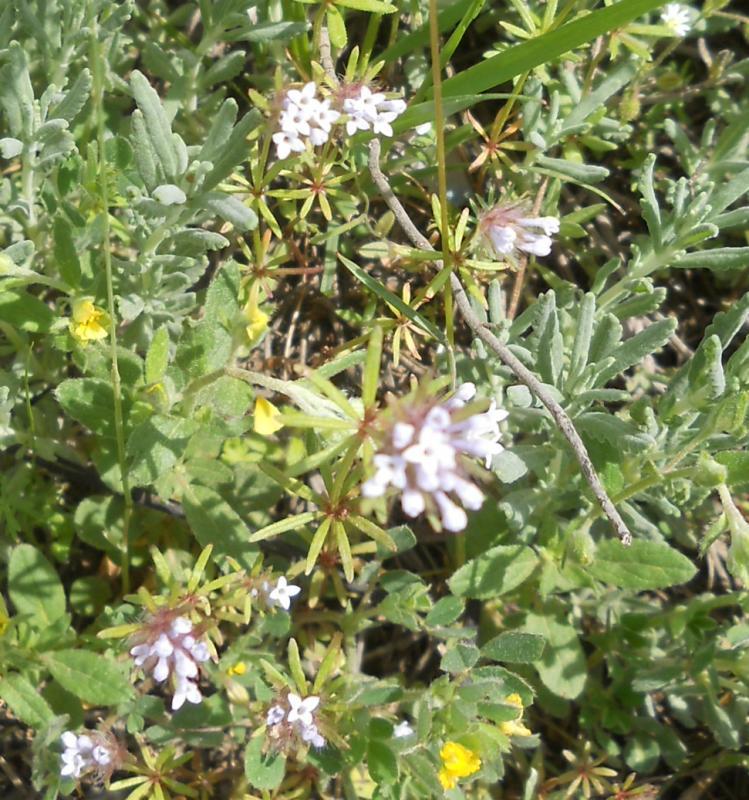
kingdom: Plantae
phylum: Tracheophyta
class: Magnoliopsida
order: Gentianales
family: Rubiaceae
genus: Asperula
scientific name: Asperula orientalis
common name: Oriental asperula
